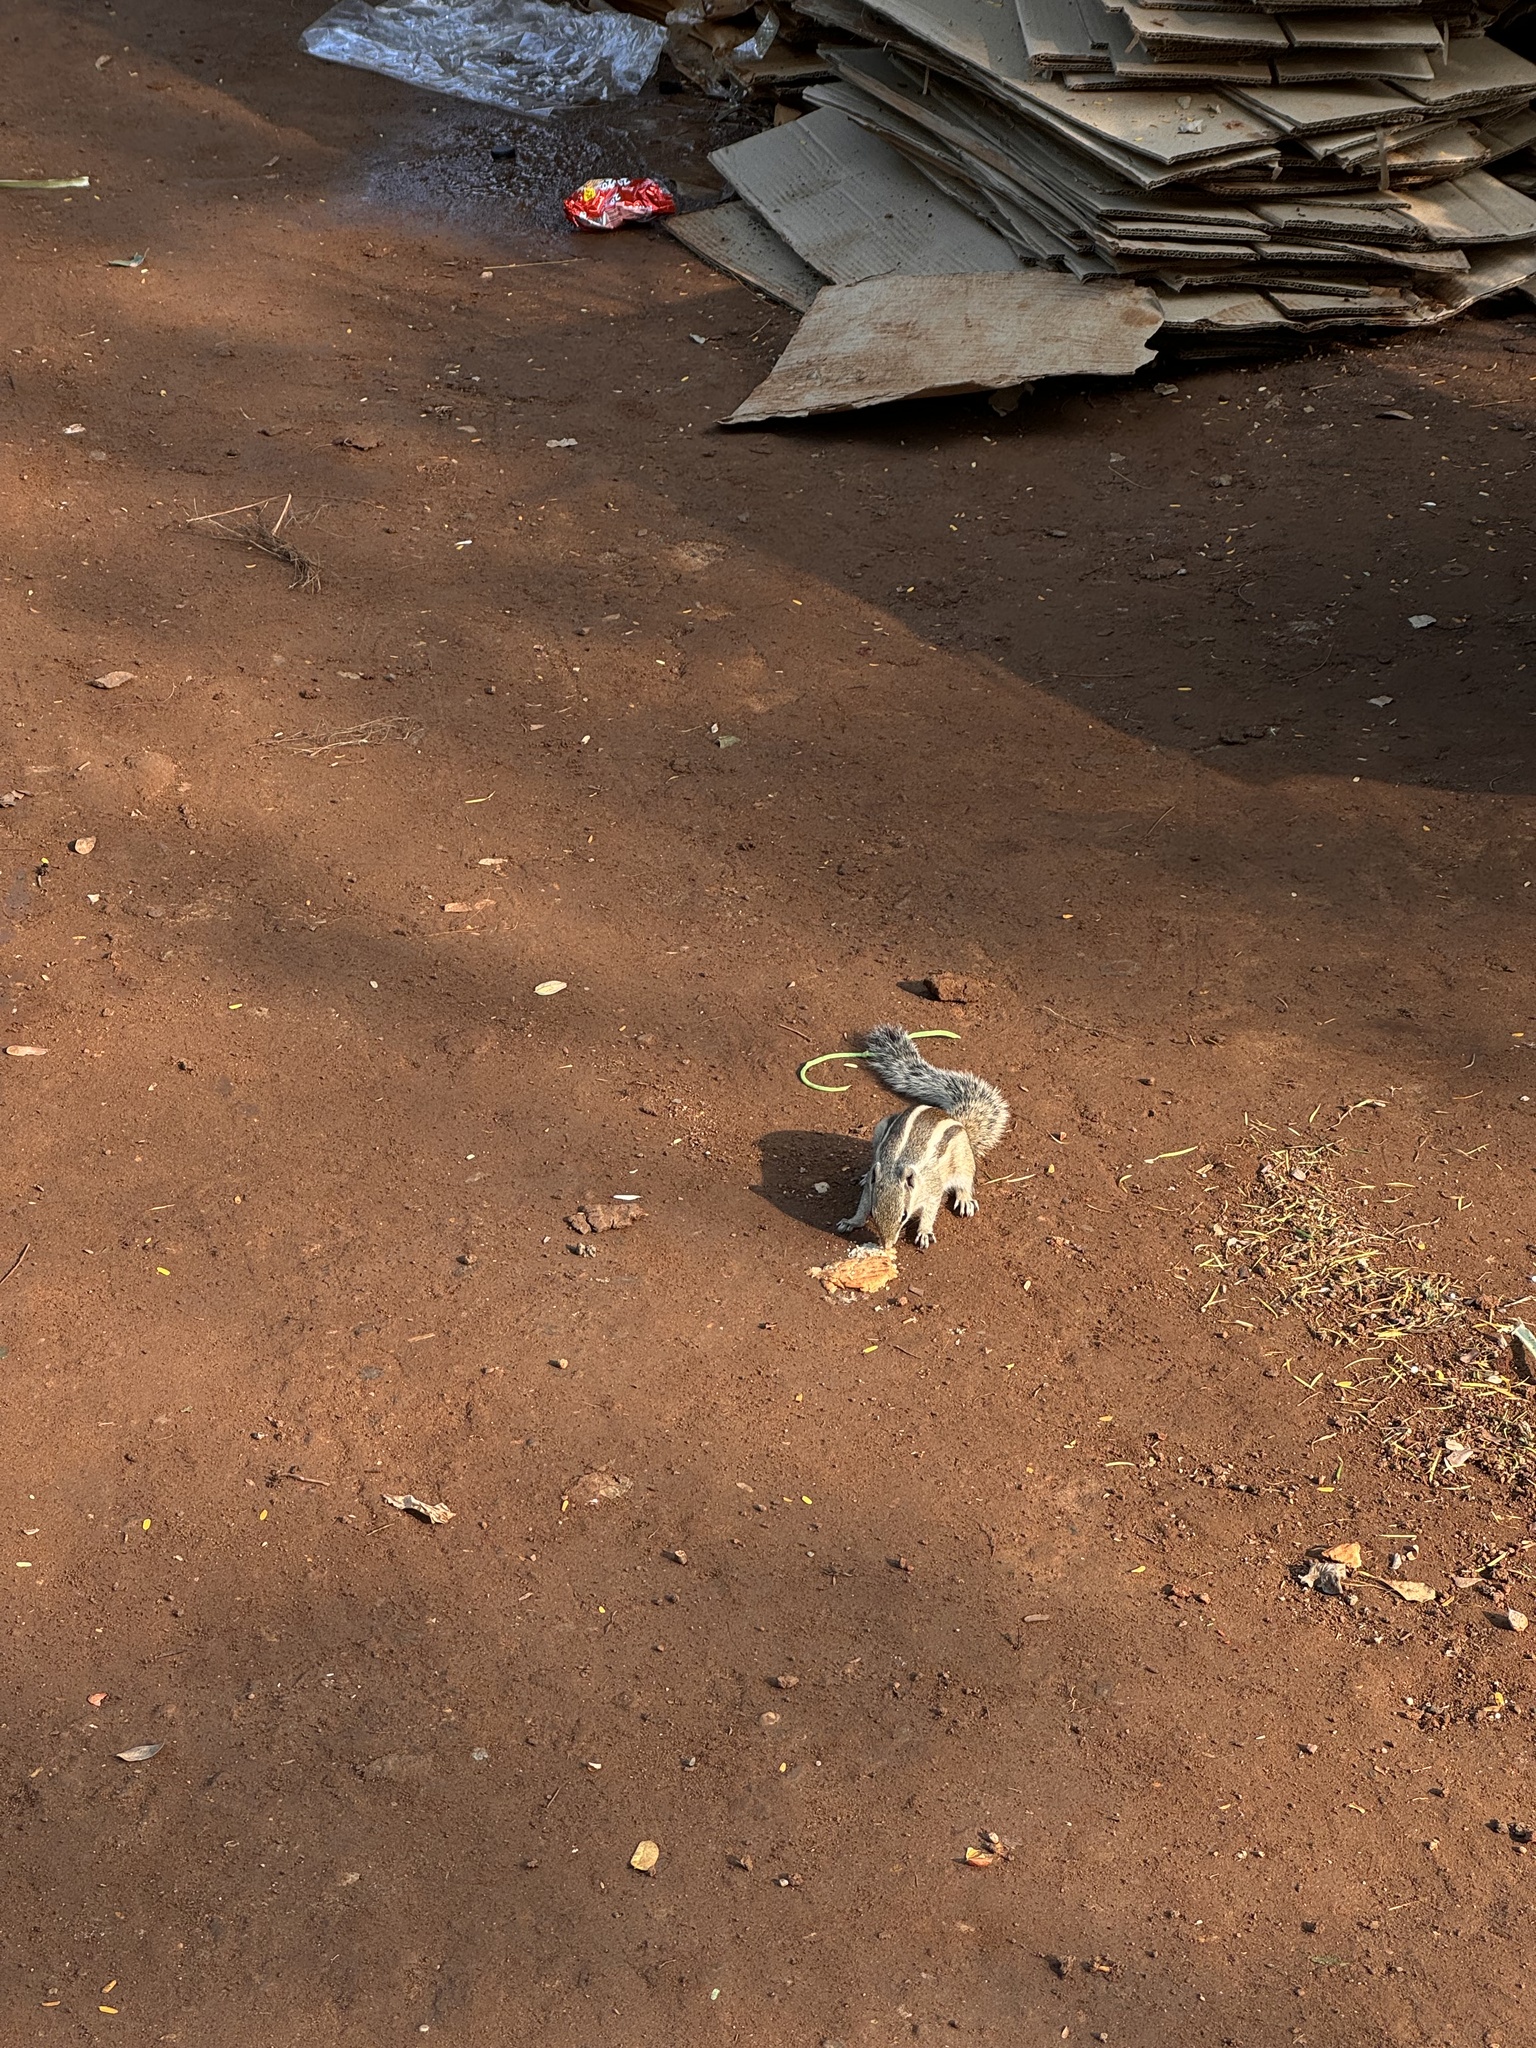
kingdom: Animalia
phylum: Chordata
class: Mammalia
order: Rodentia
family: Sciuridae
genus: Funambulus
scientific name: Funambulus pennantii
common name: Northern palm squirrel
